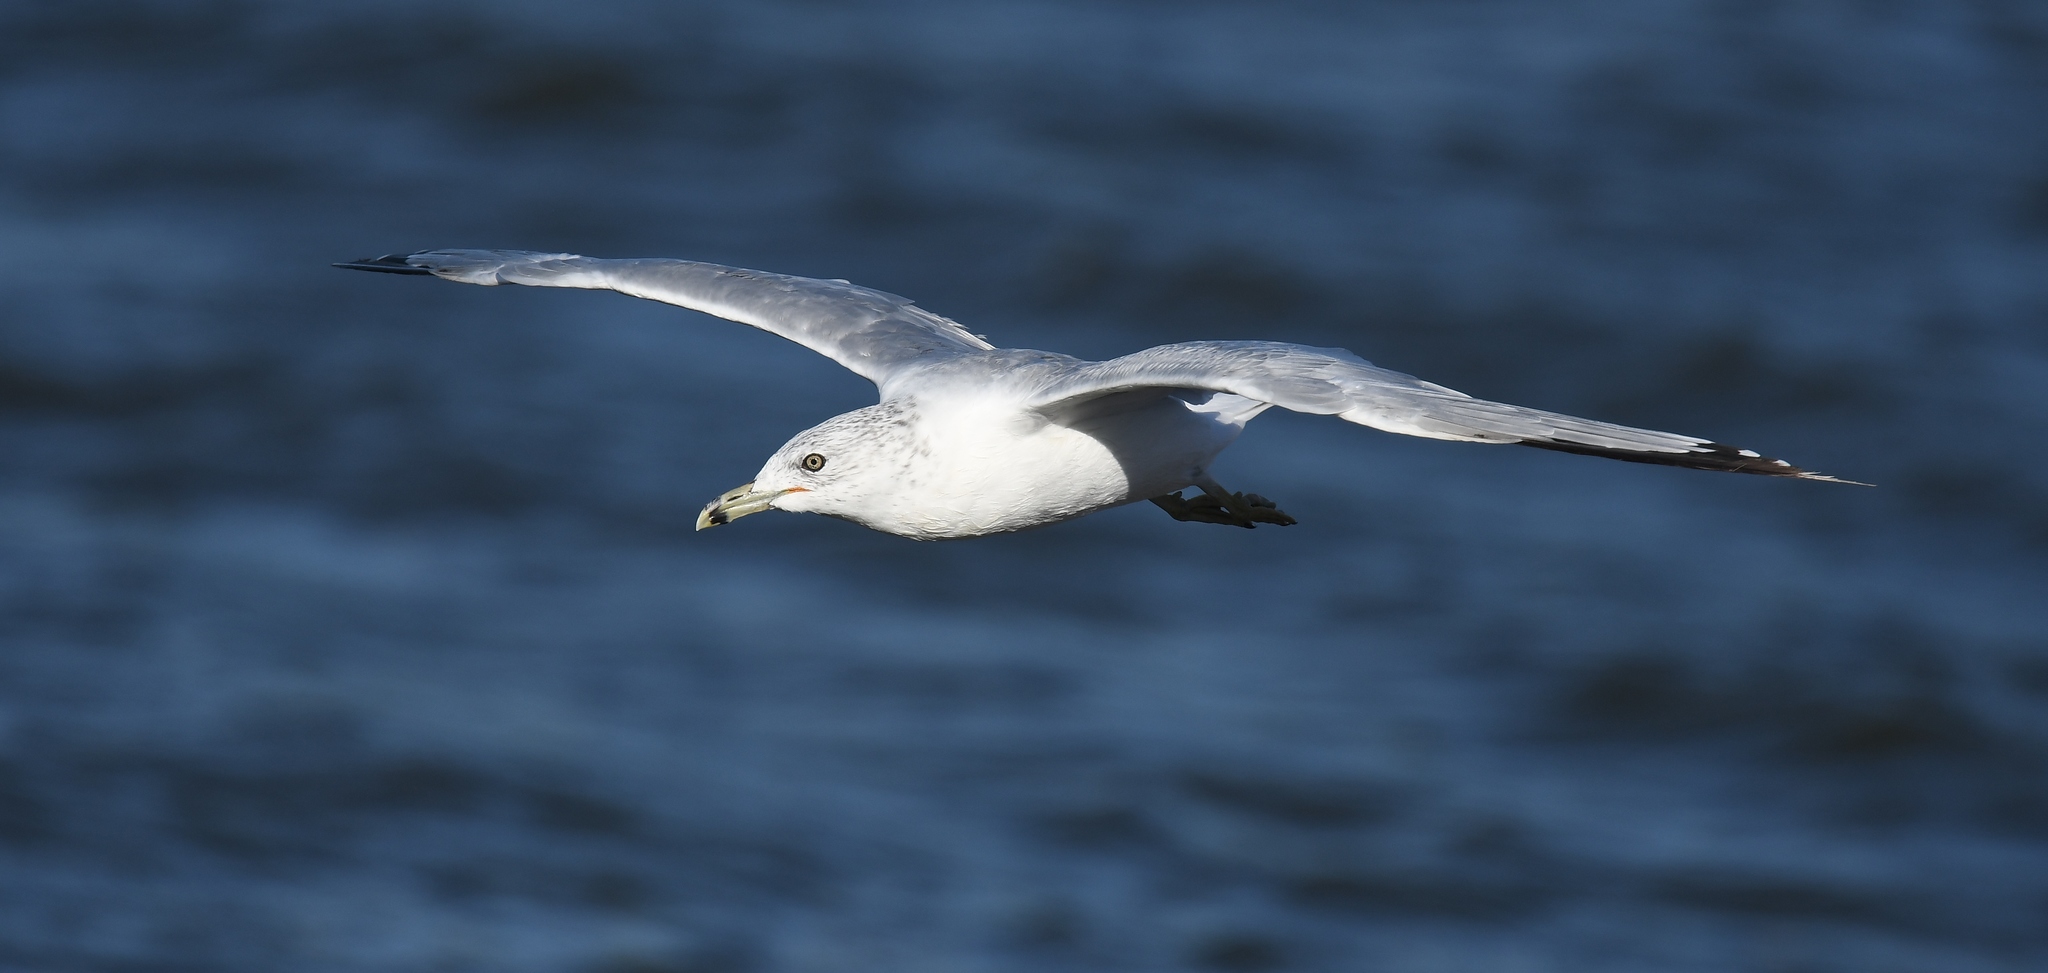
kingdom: Animalia
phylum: Chordata
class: Aves
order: Charadriiformes
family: Laridae
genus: Larus
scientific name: Larus delawarensis
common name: Ring-billed gull
